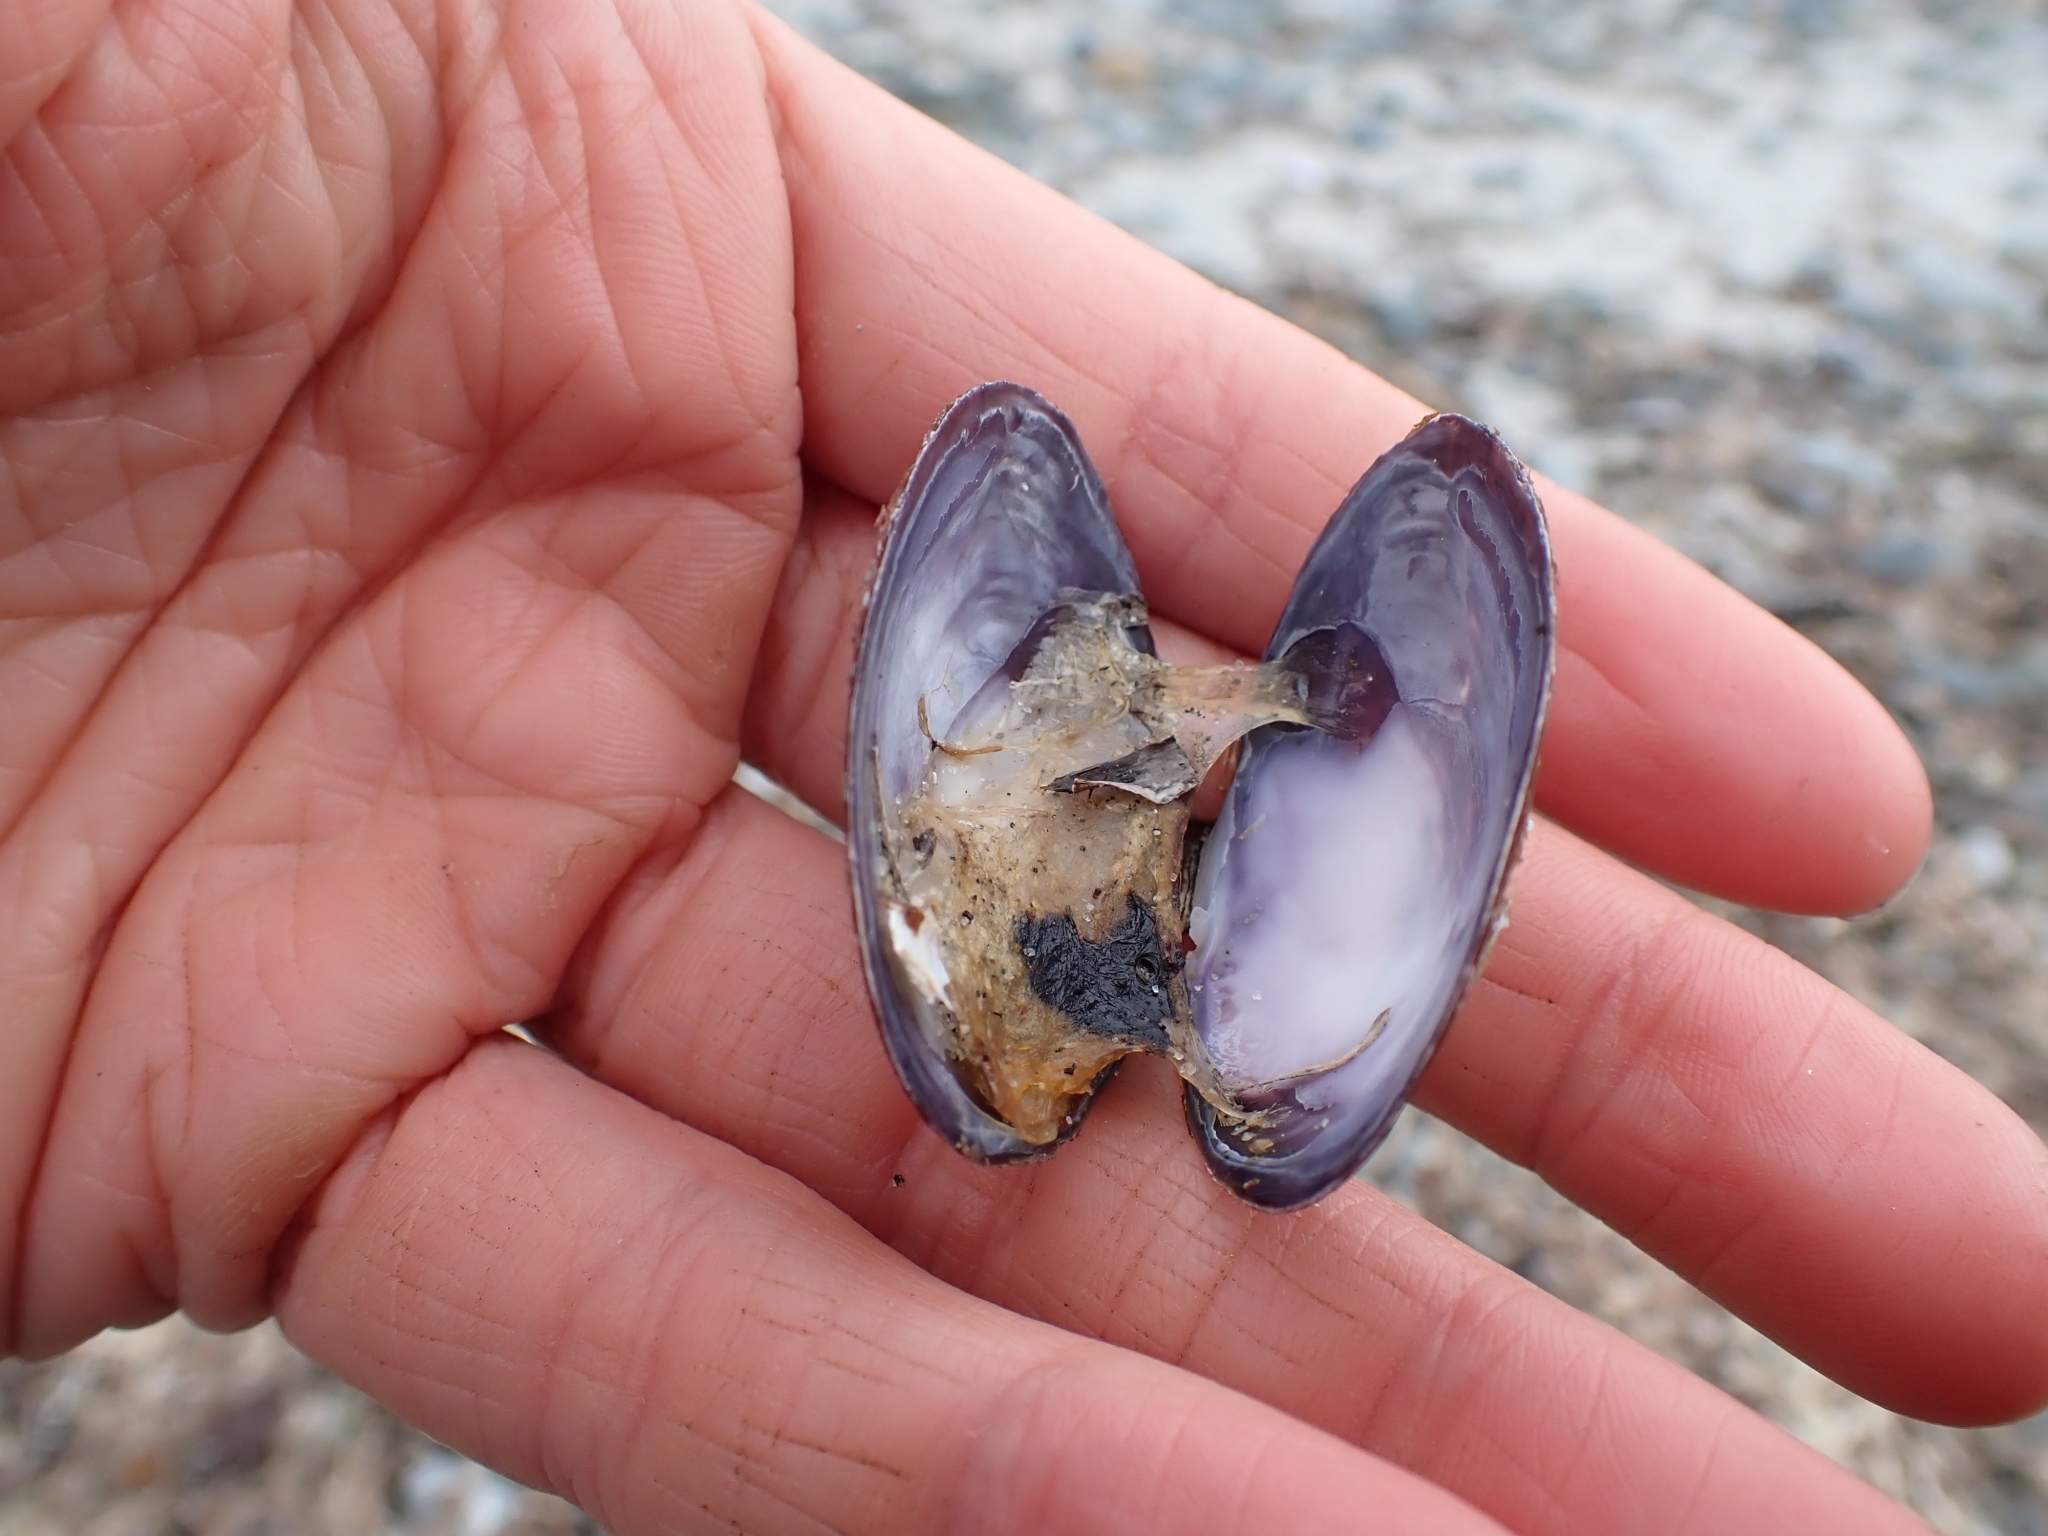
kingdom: Animalia
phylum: Mollusca
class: Bivalvia
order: Cardiida
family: Psammobiidae
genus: Nuttallia
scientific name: Nuttallia obscurata
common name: Purple mahogany-clam
